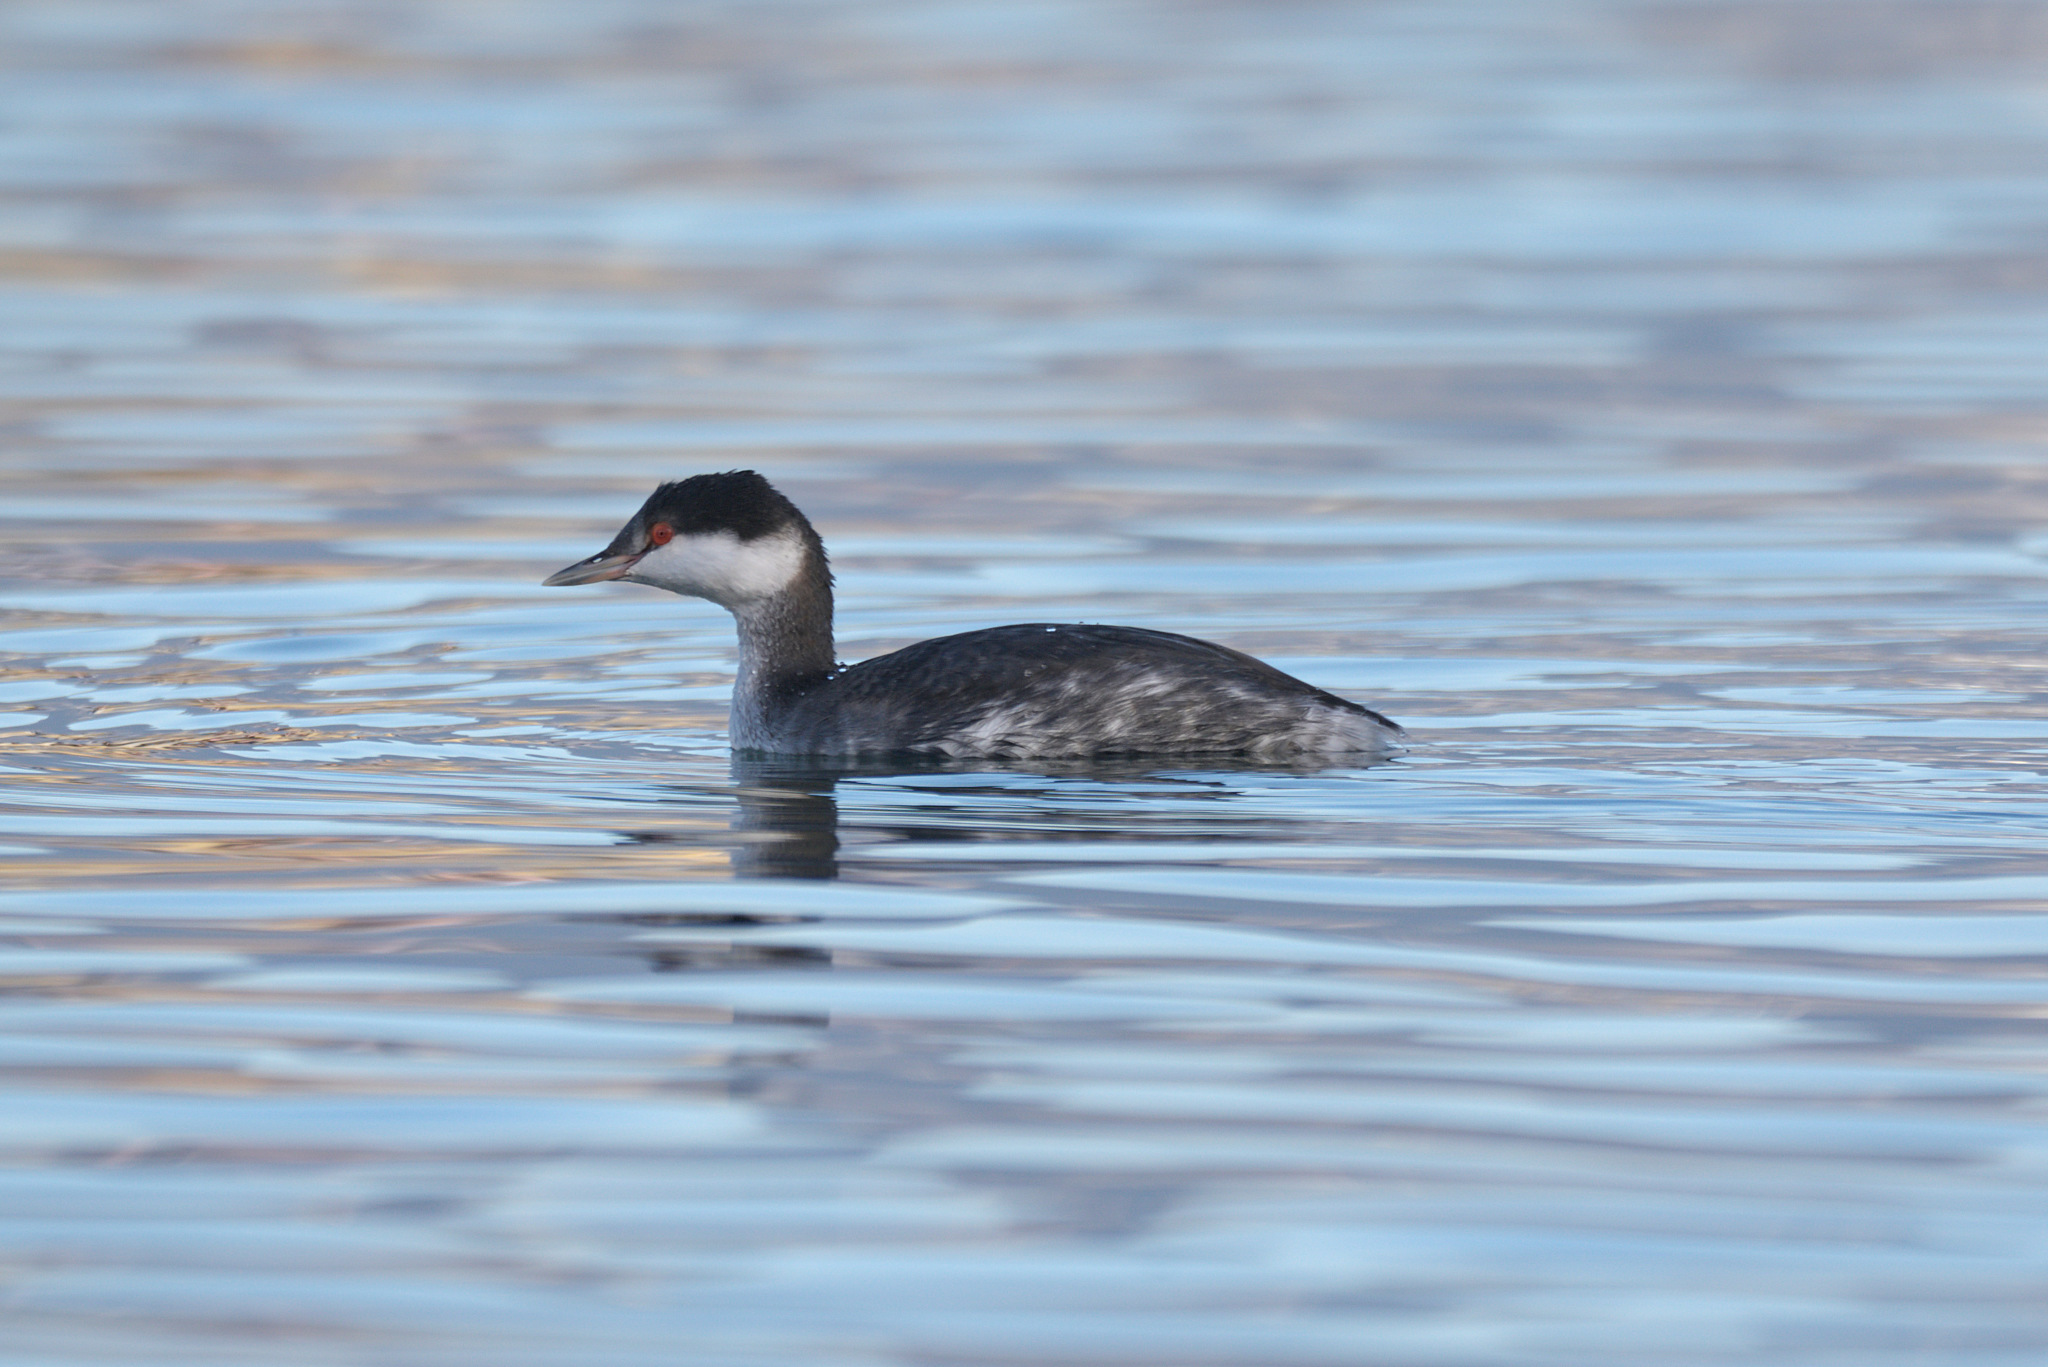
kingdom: Animalia
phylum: Chordata
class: Aves
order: Podicipediformes
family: Podicipedidae
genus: Podiceps
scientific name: Podiceps auritus
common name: Horned grebe
